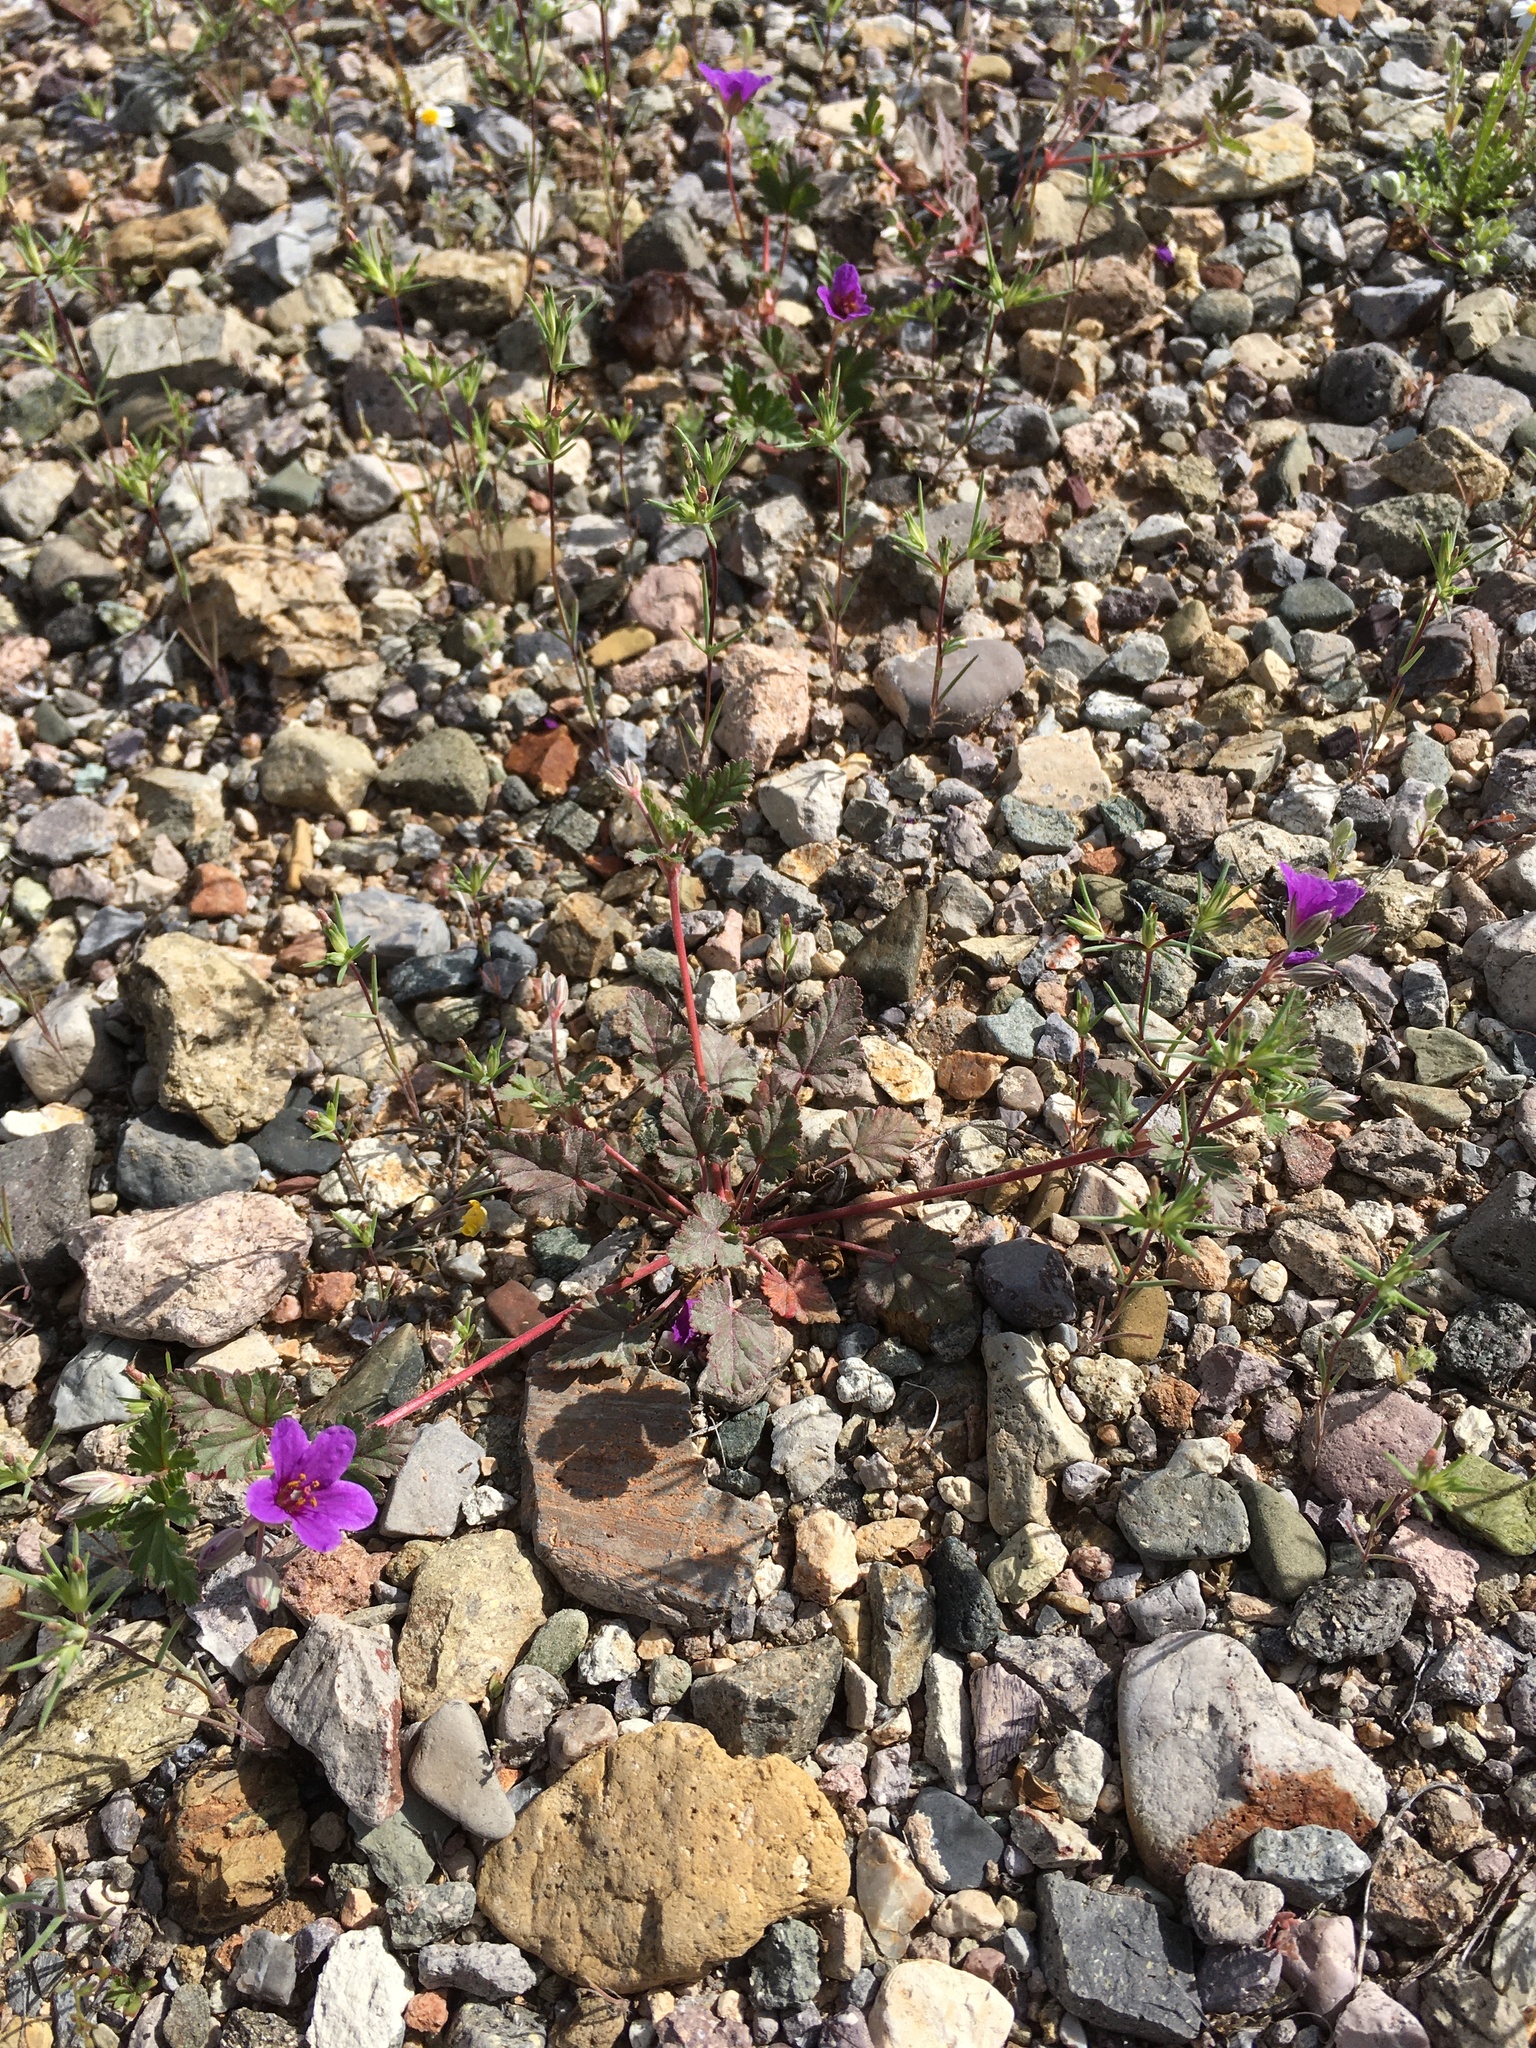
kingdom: Plantae
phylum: Tracheophyta
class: Magnoliopsida
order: Geraniales
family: Geraniaceae
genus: Erodium
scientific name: Erodium texanum
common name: Texas stork's-bill
